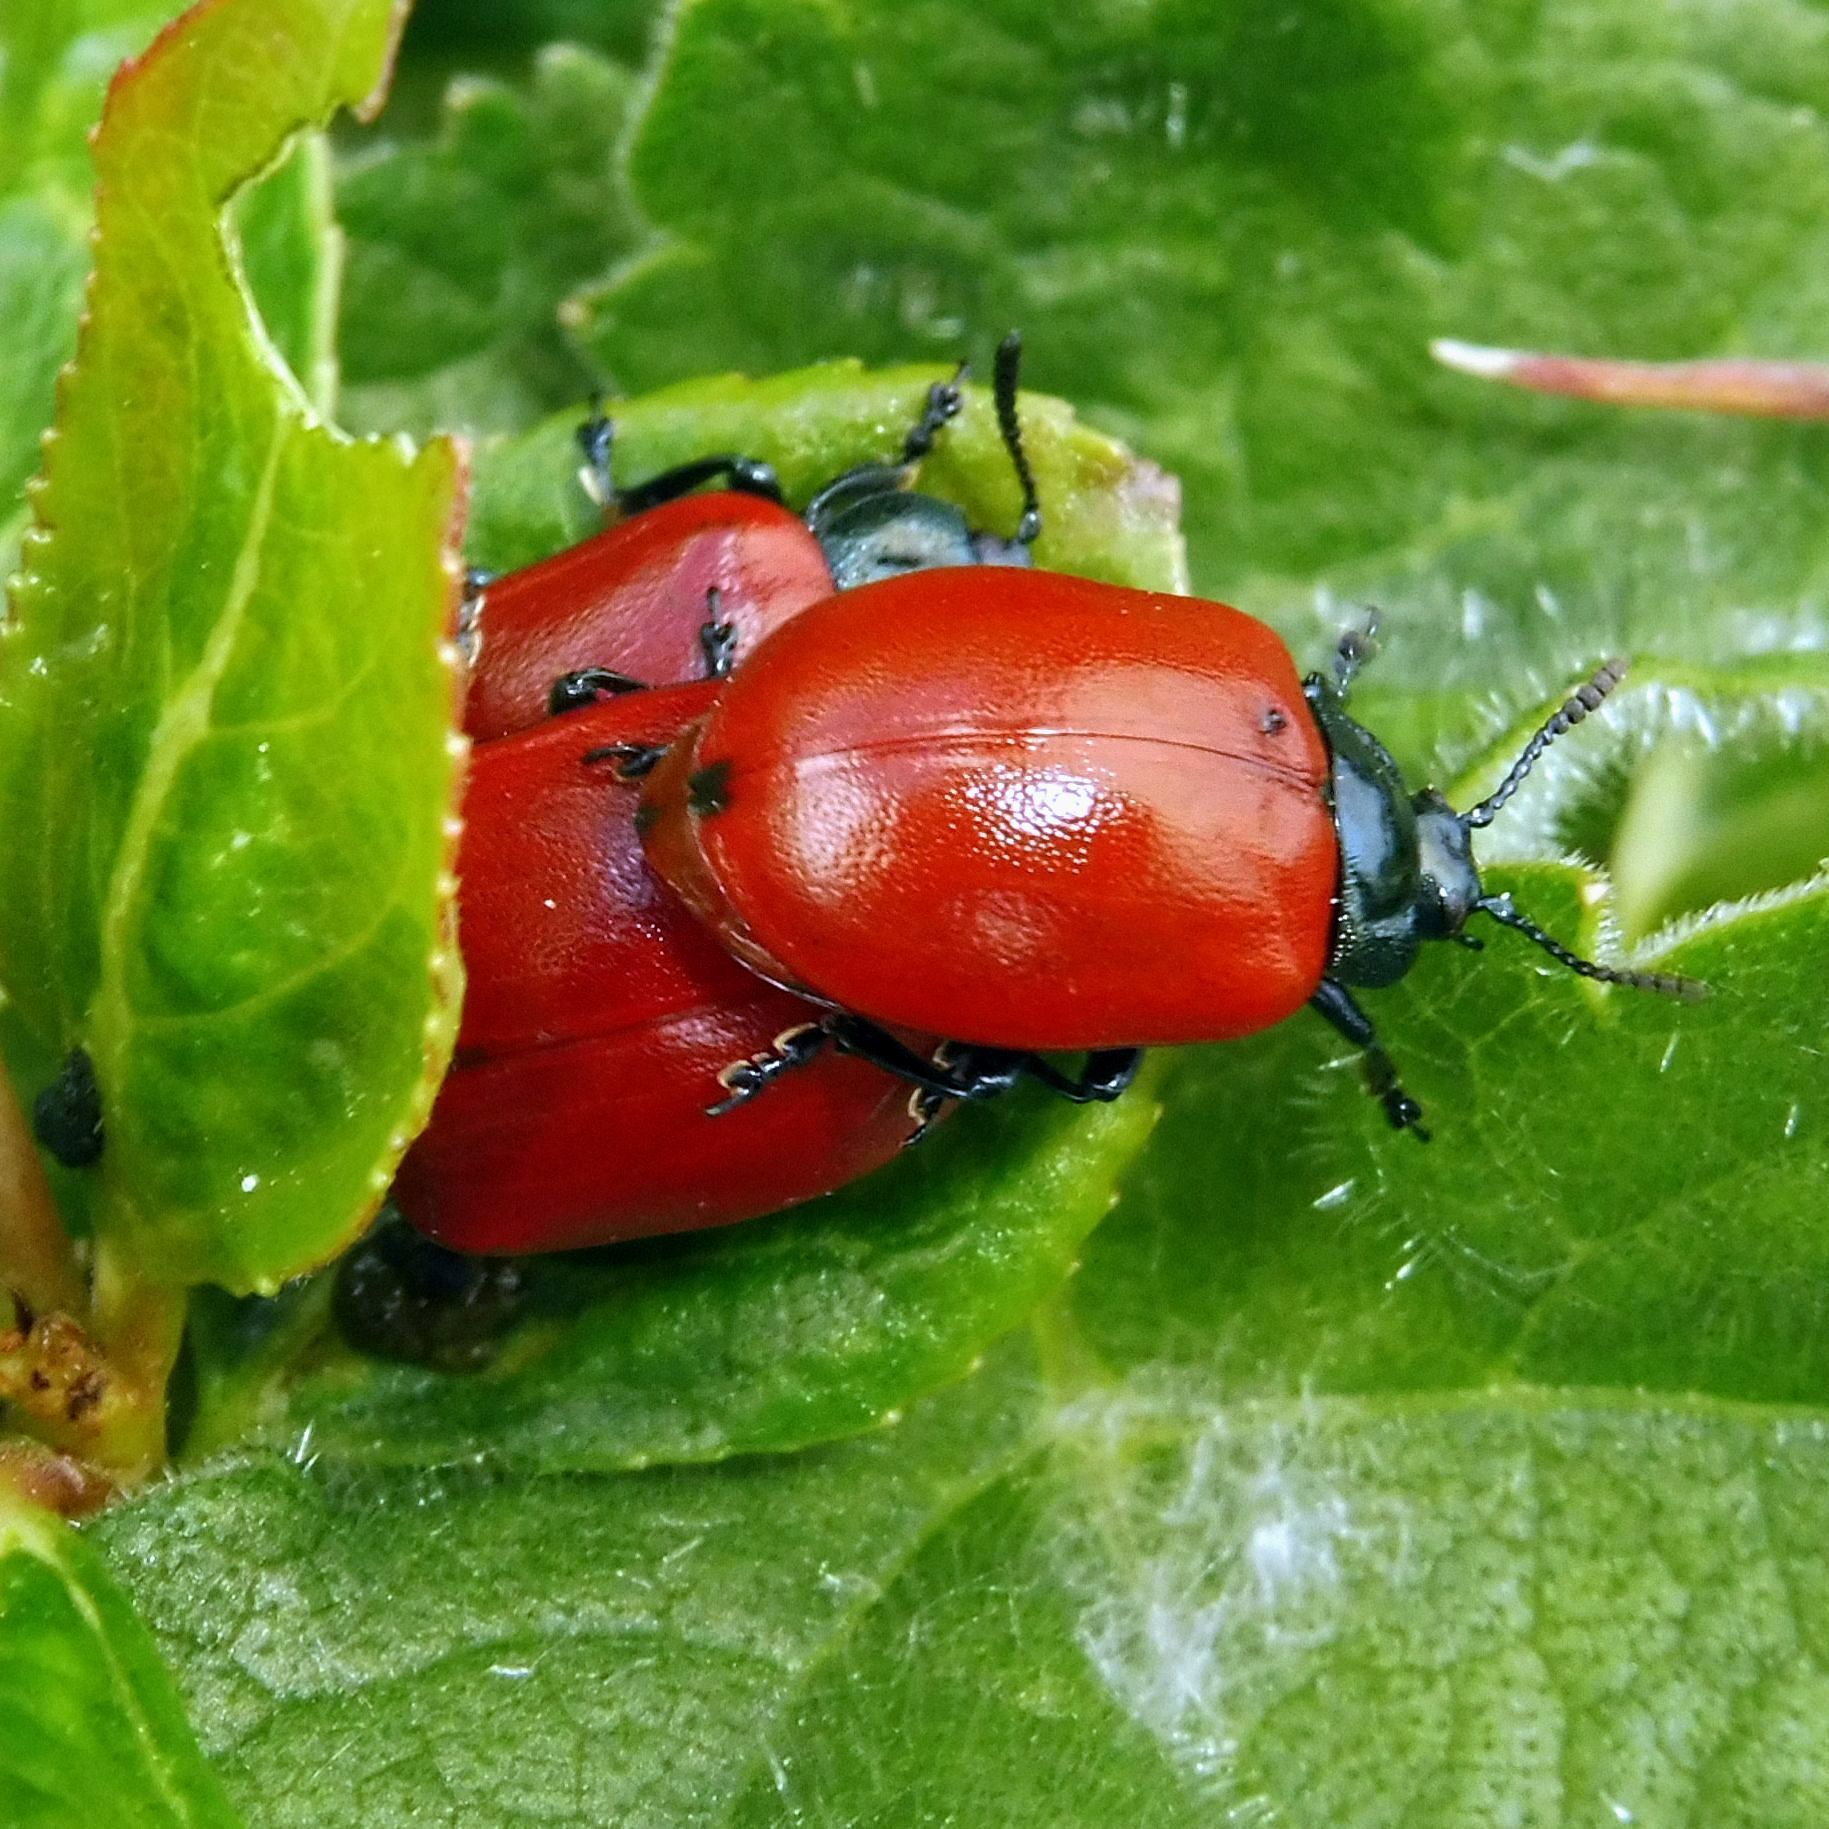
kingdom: Animalia
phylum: Arthropoda
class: Insecta
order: Coleoptera
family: Chrysomelidae
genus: Chrysomela
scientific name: Chrysomela populi
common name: Red poplar leaf beetle
